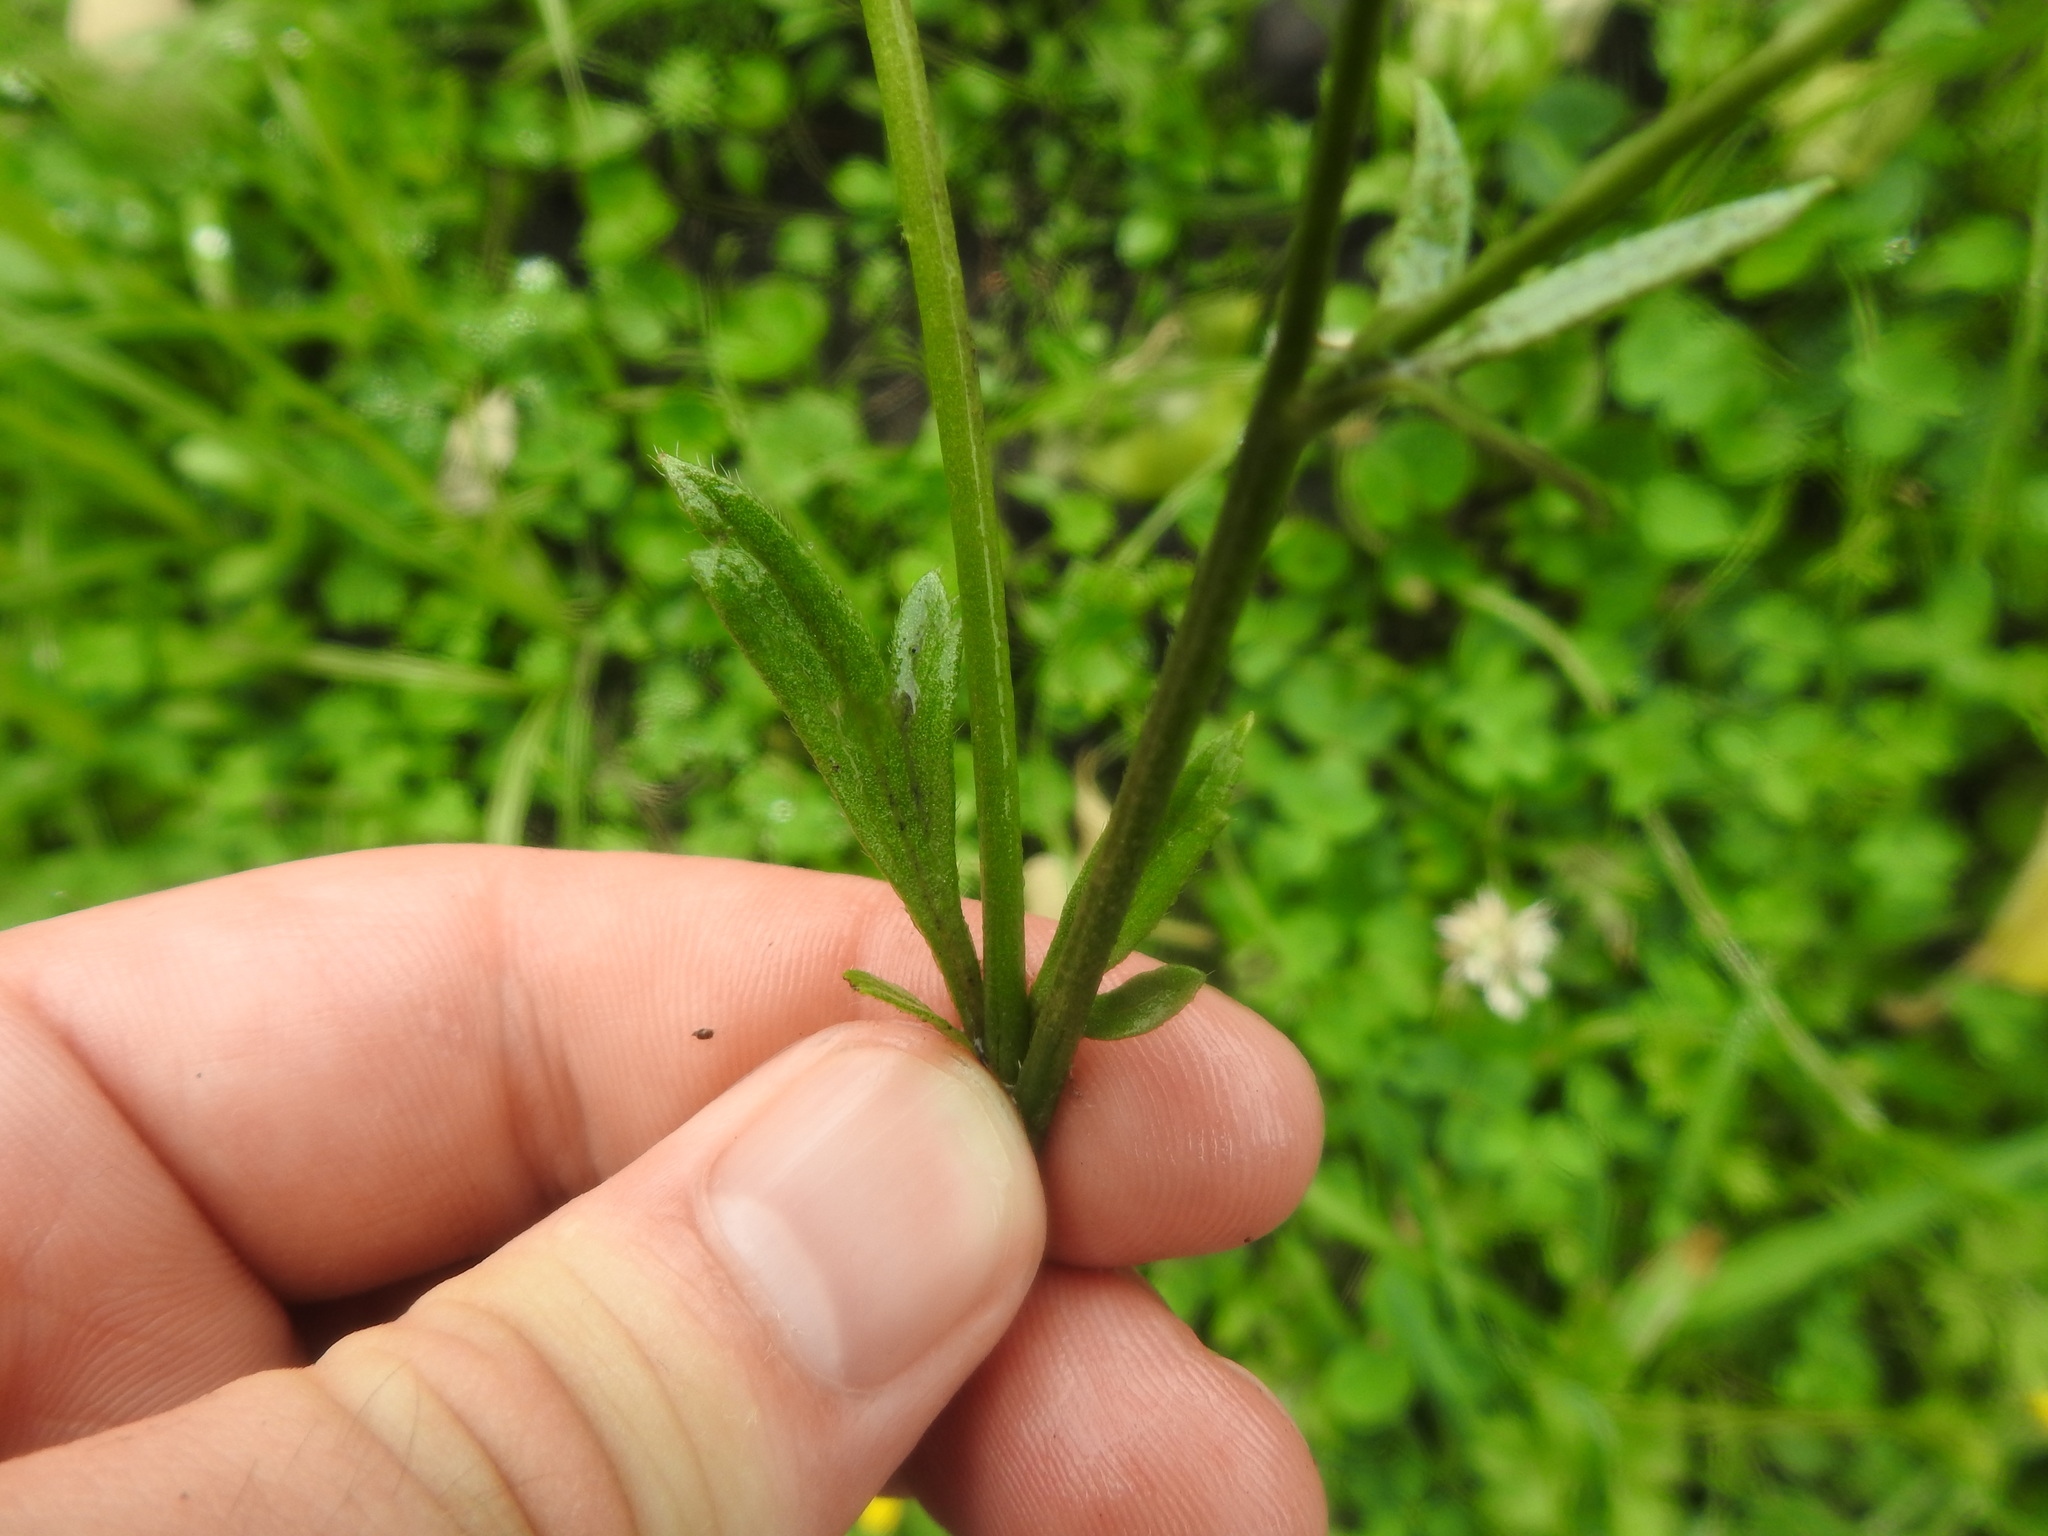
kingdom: Plantae
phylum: Tracheophyta
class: Magnoliopsida
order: Ranunculales
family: Ranunculaceae
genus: Ranunculus
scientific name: Ranunculus multifidus
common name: Wild buttercup
